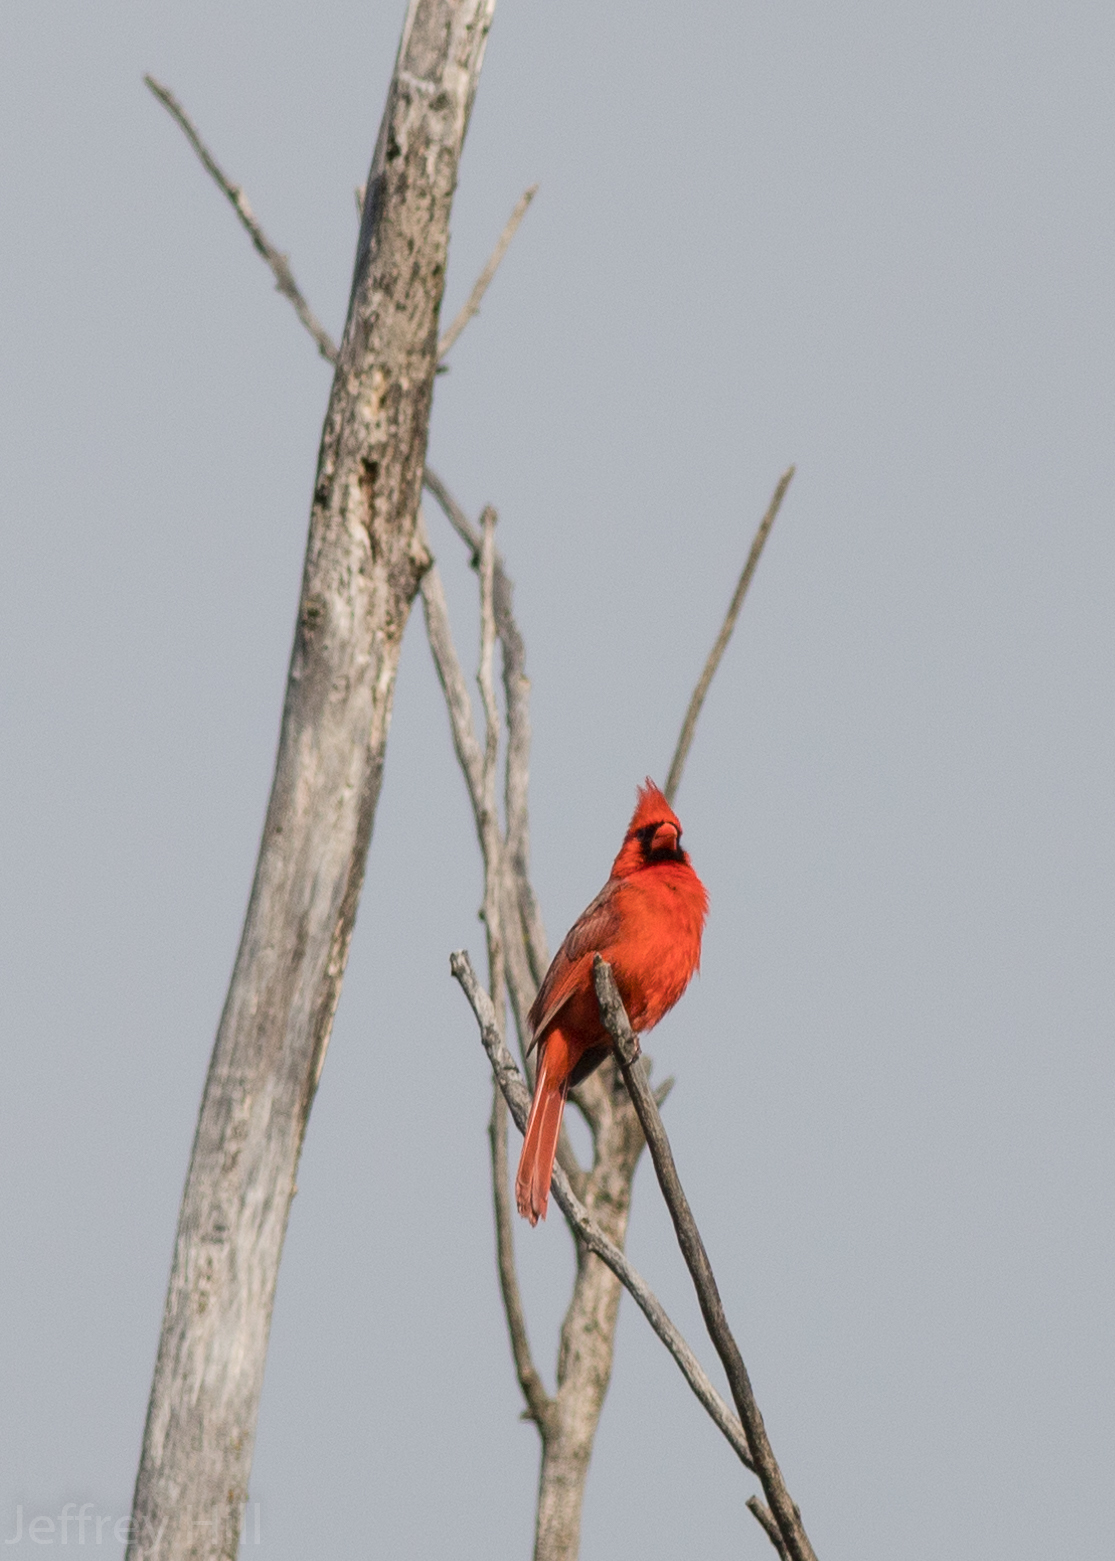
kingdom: Animalia
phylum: Chordata
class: Aves
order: Passeriformes
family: Cardinalidae
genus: Cardinalis
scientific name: Cardinalis cardinalis
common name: Northern cardinal
